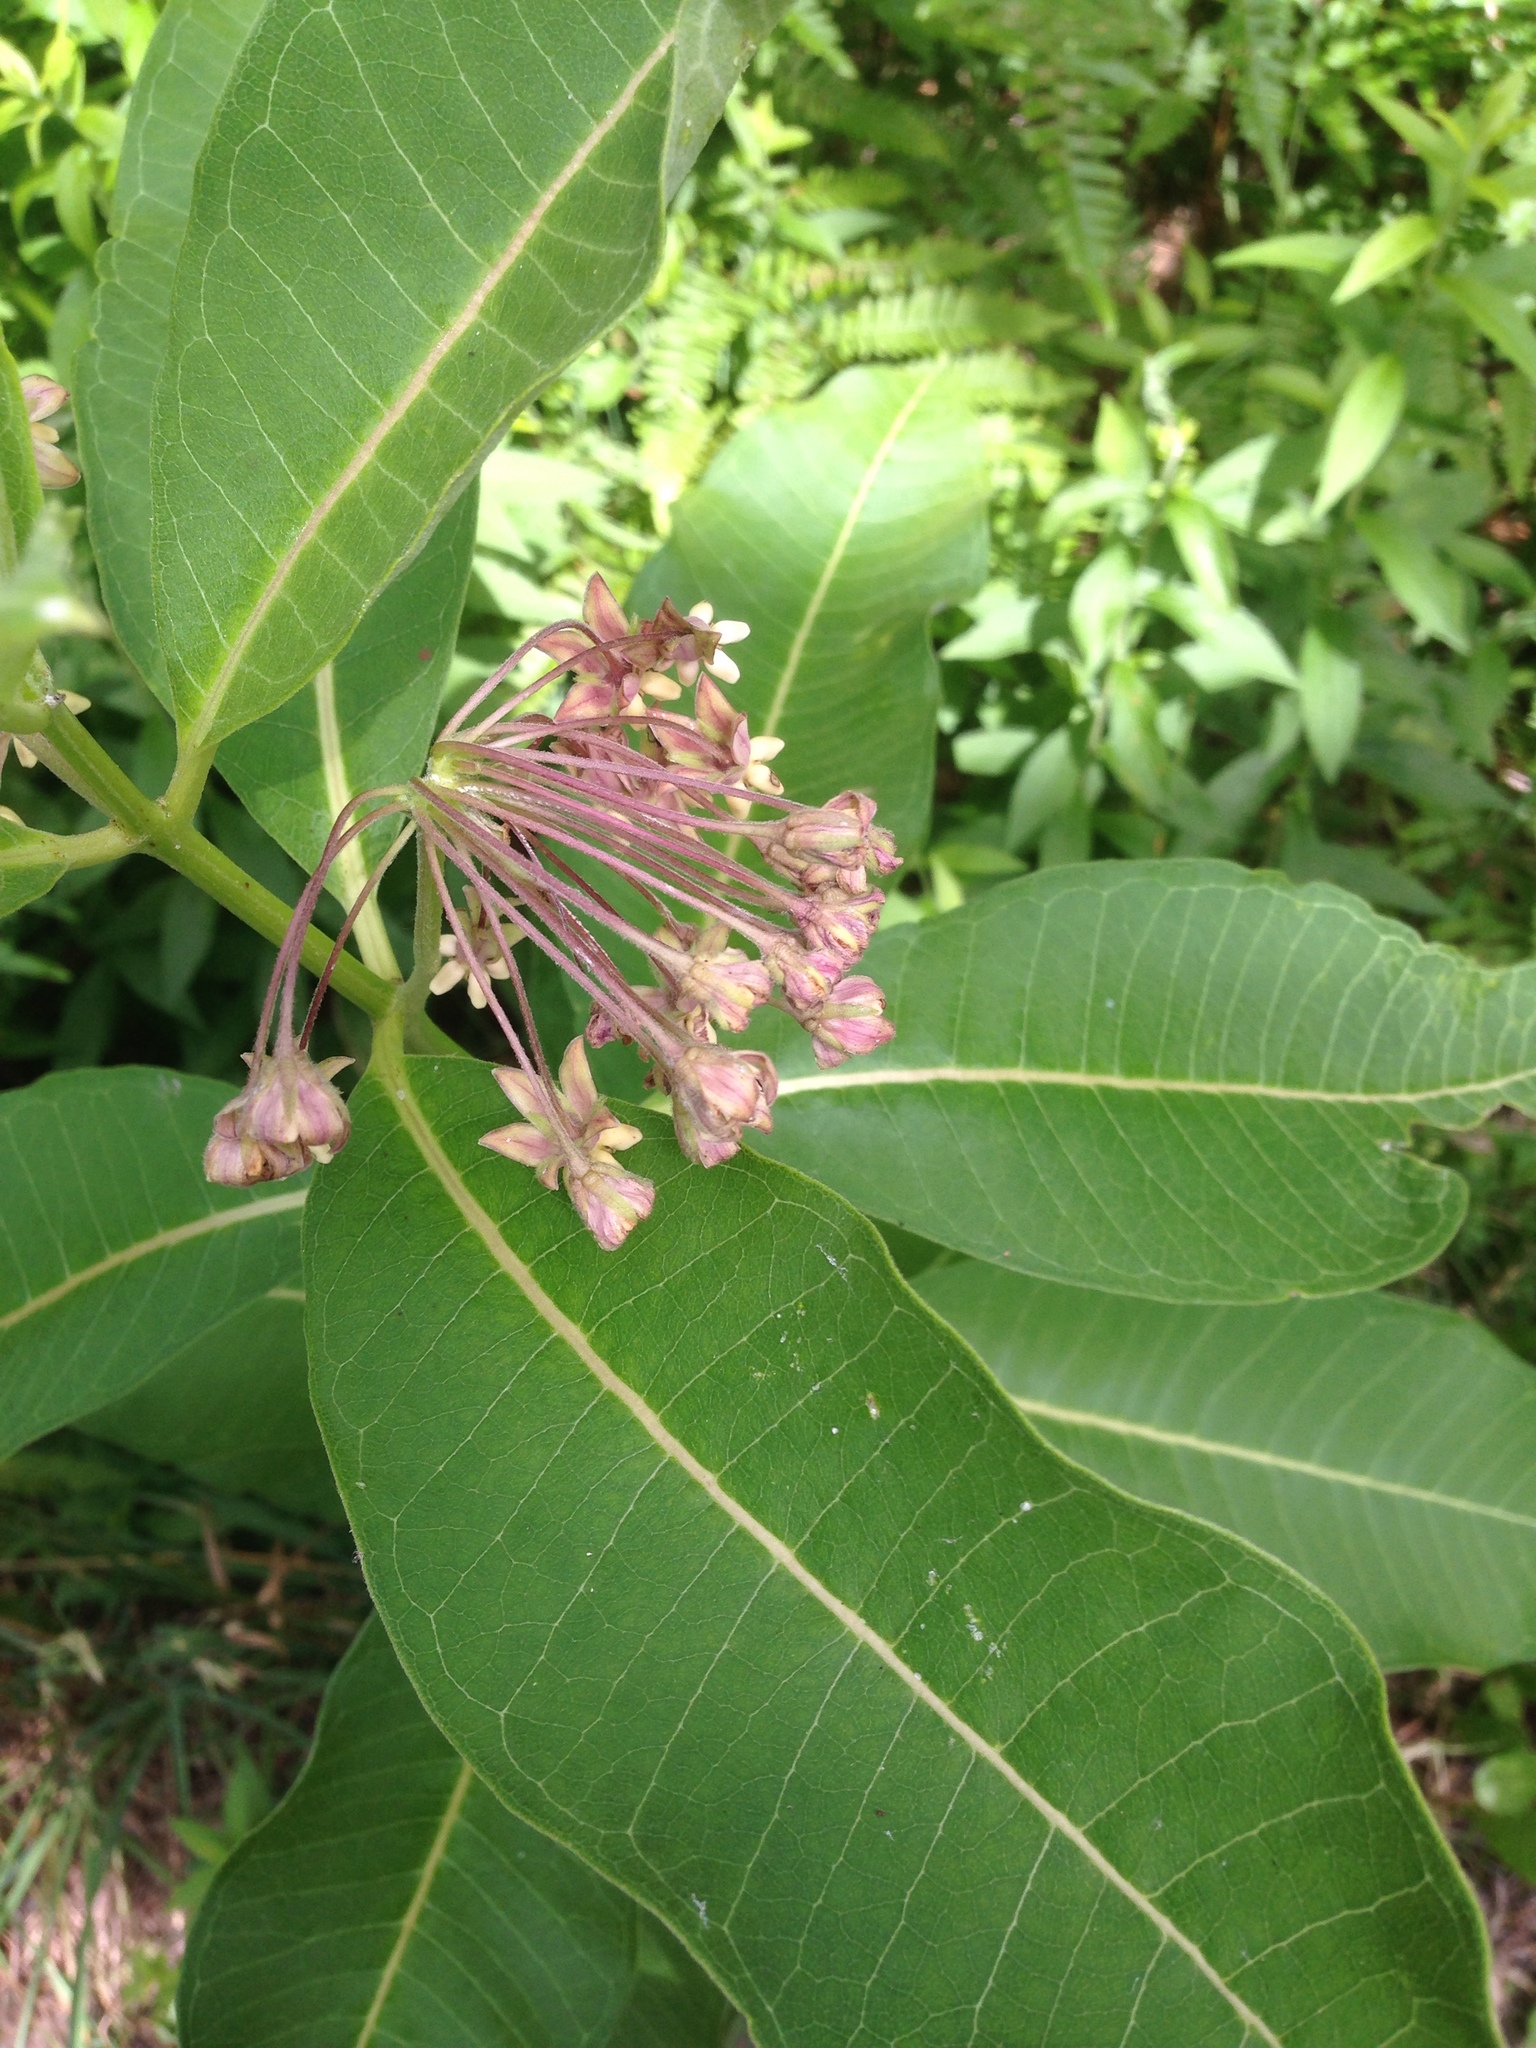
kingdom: Plantae
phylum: Tracheophyta
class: Magnoliopsida
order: Gentianales
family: Apocynaceae
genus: Asclepias
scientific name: Asclepias syriaca
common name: Common milkweed
